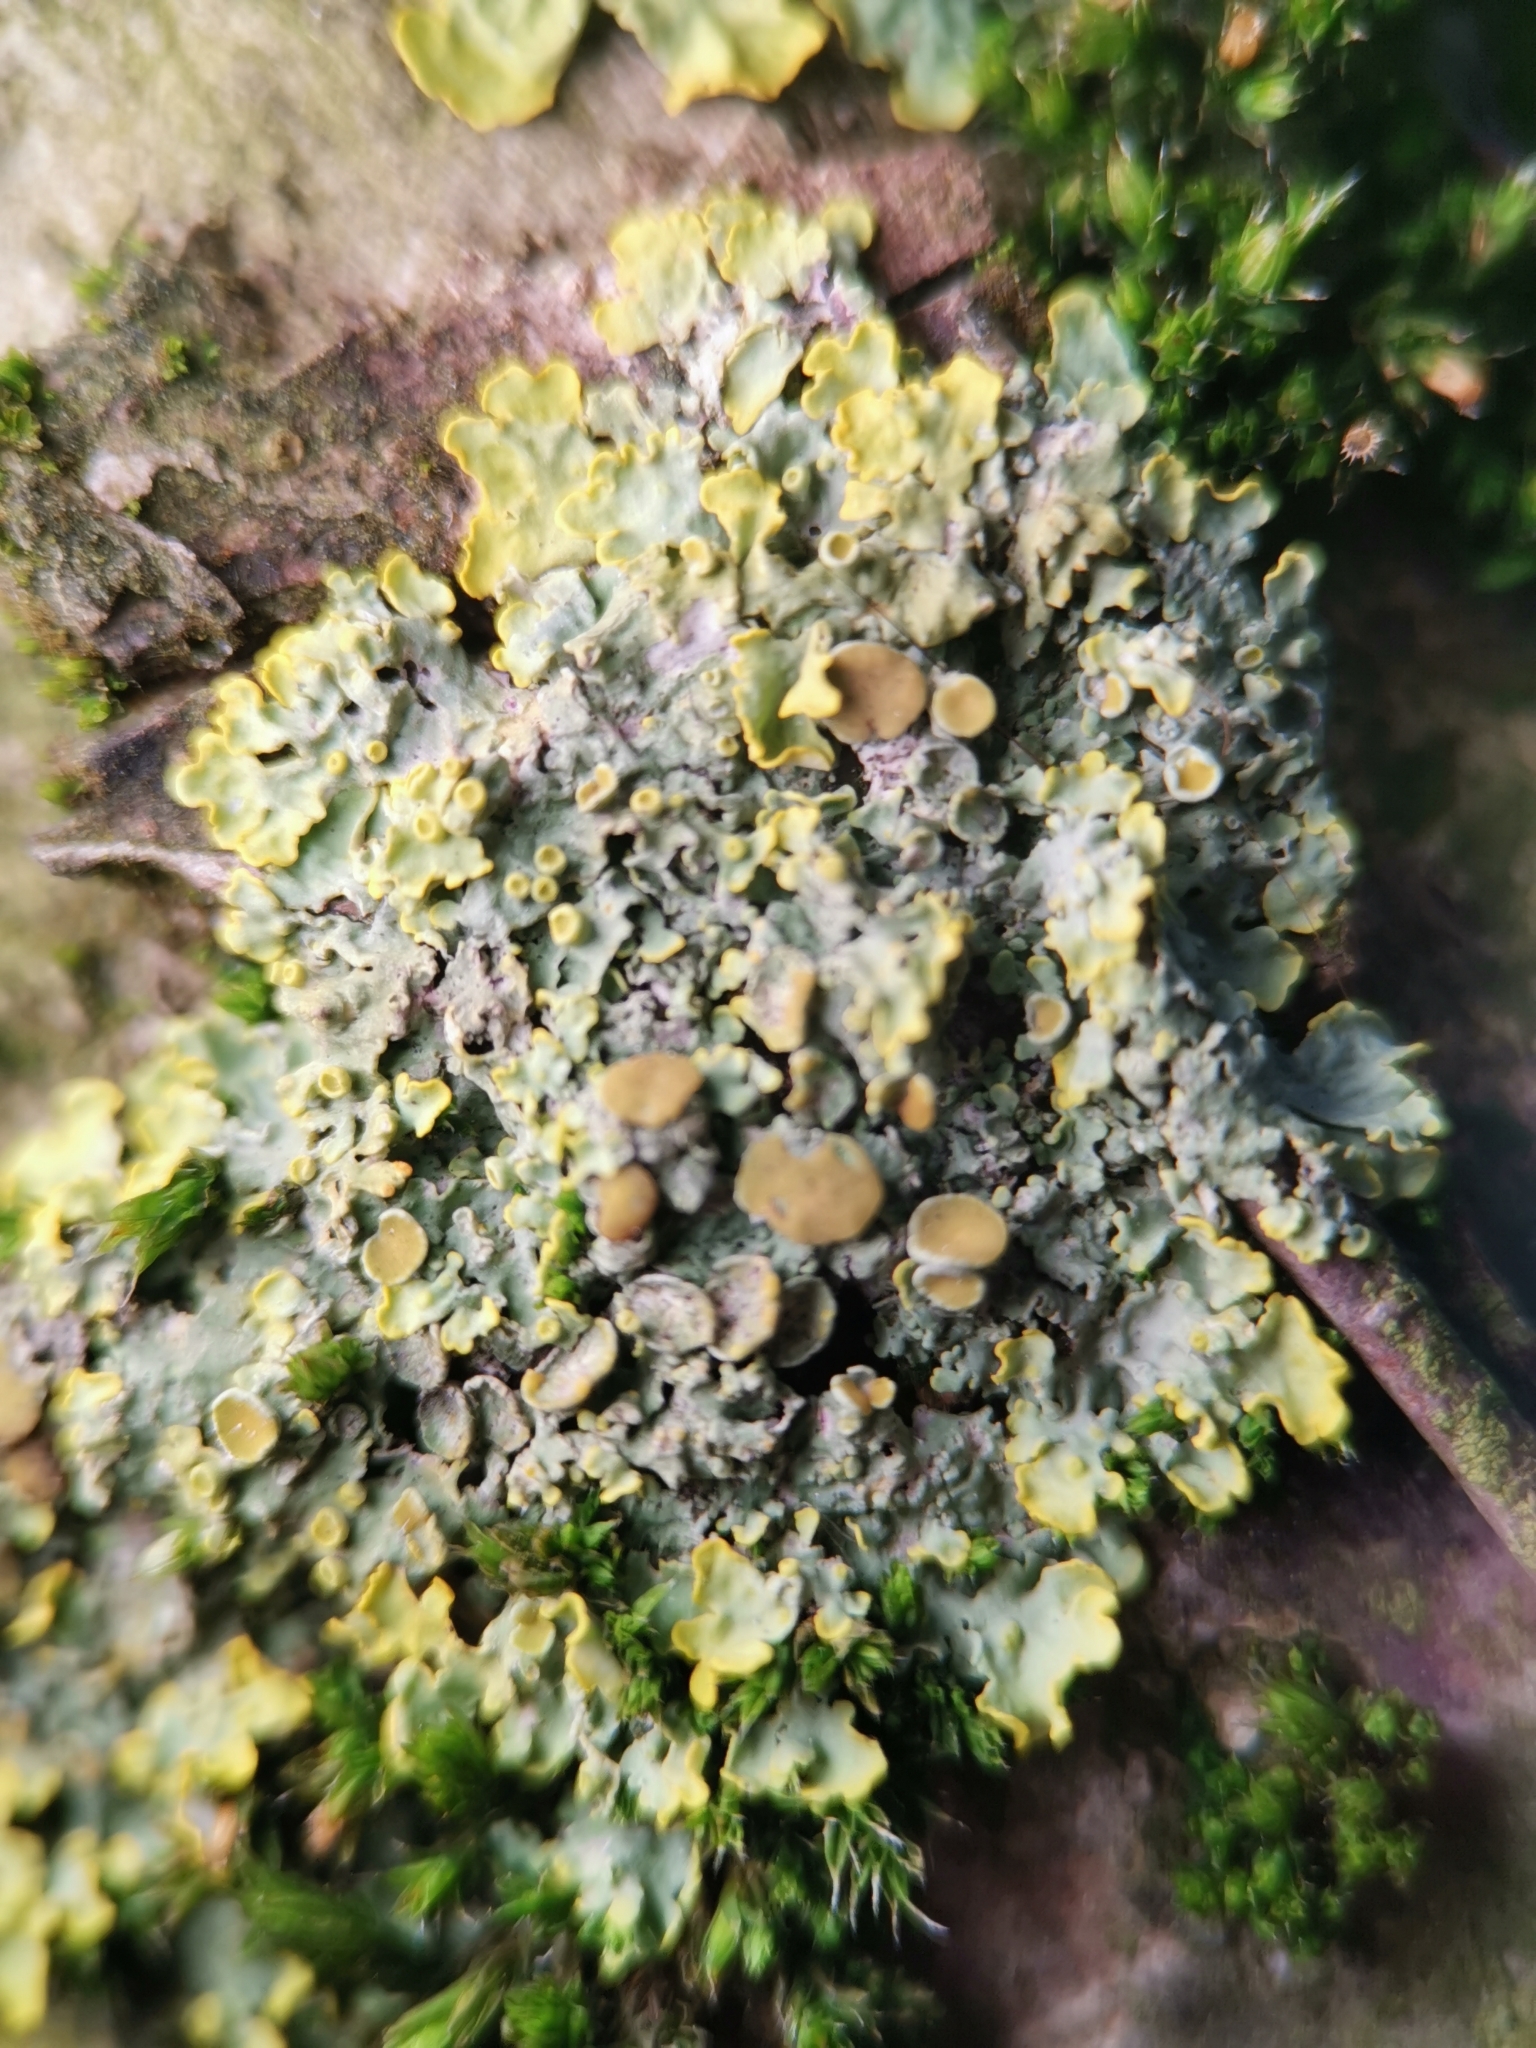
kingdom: Fungi
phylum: Ascomycota
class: Lecanoromycetes
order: Teloschistales
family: Teloschistaceae
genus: Xanthoria
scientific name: Xanthoria parietina
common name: Common orange lichen
